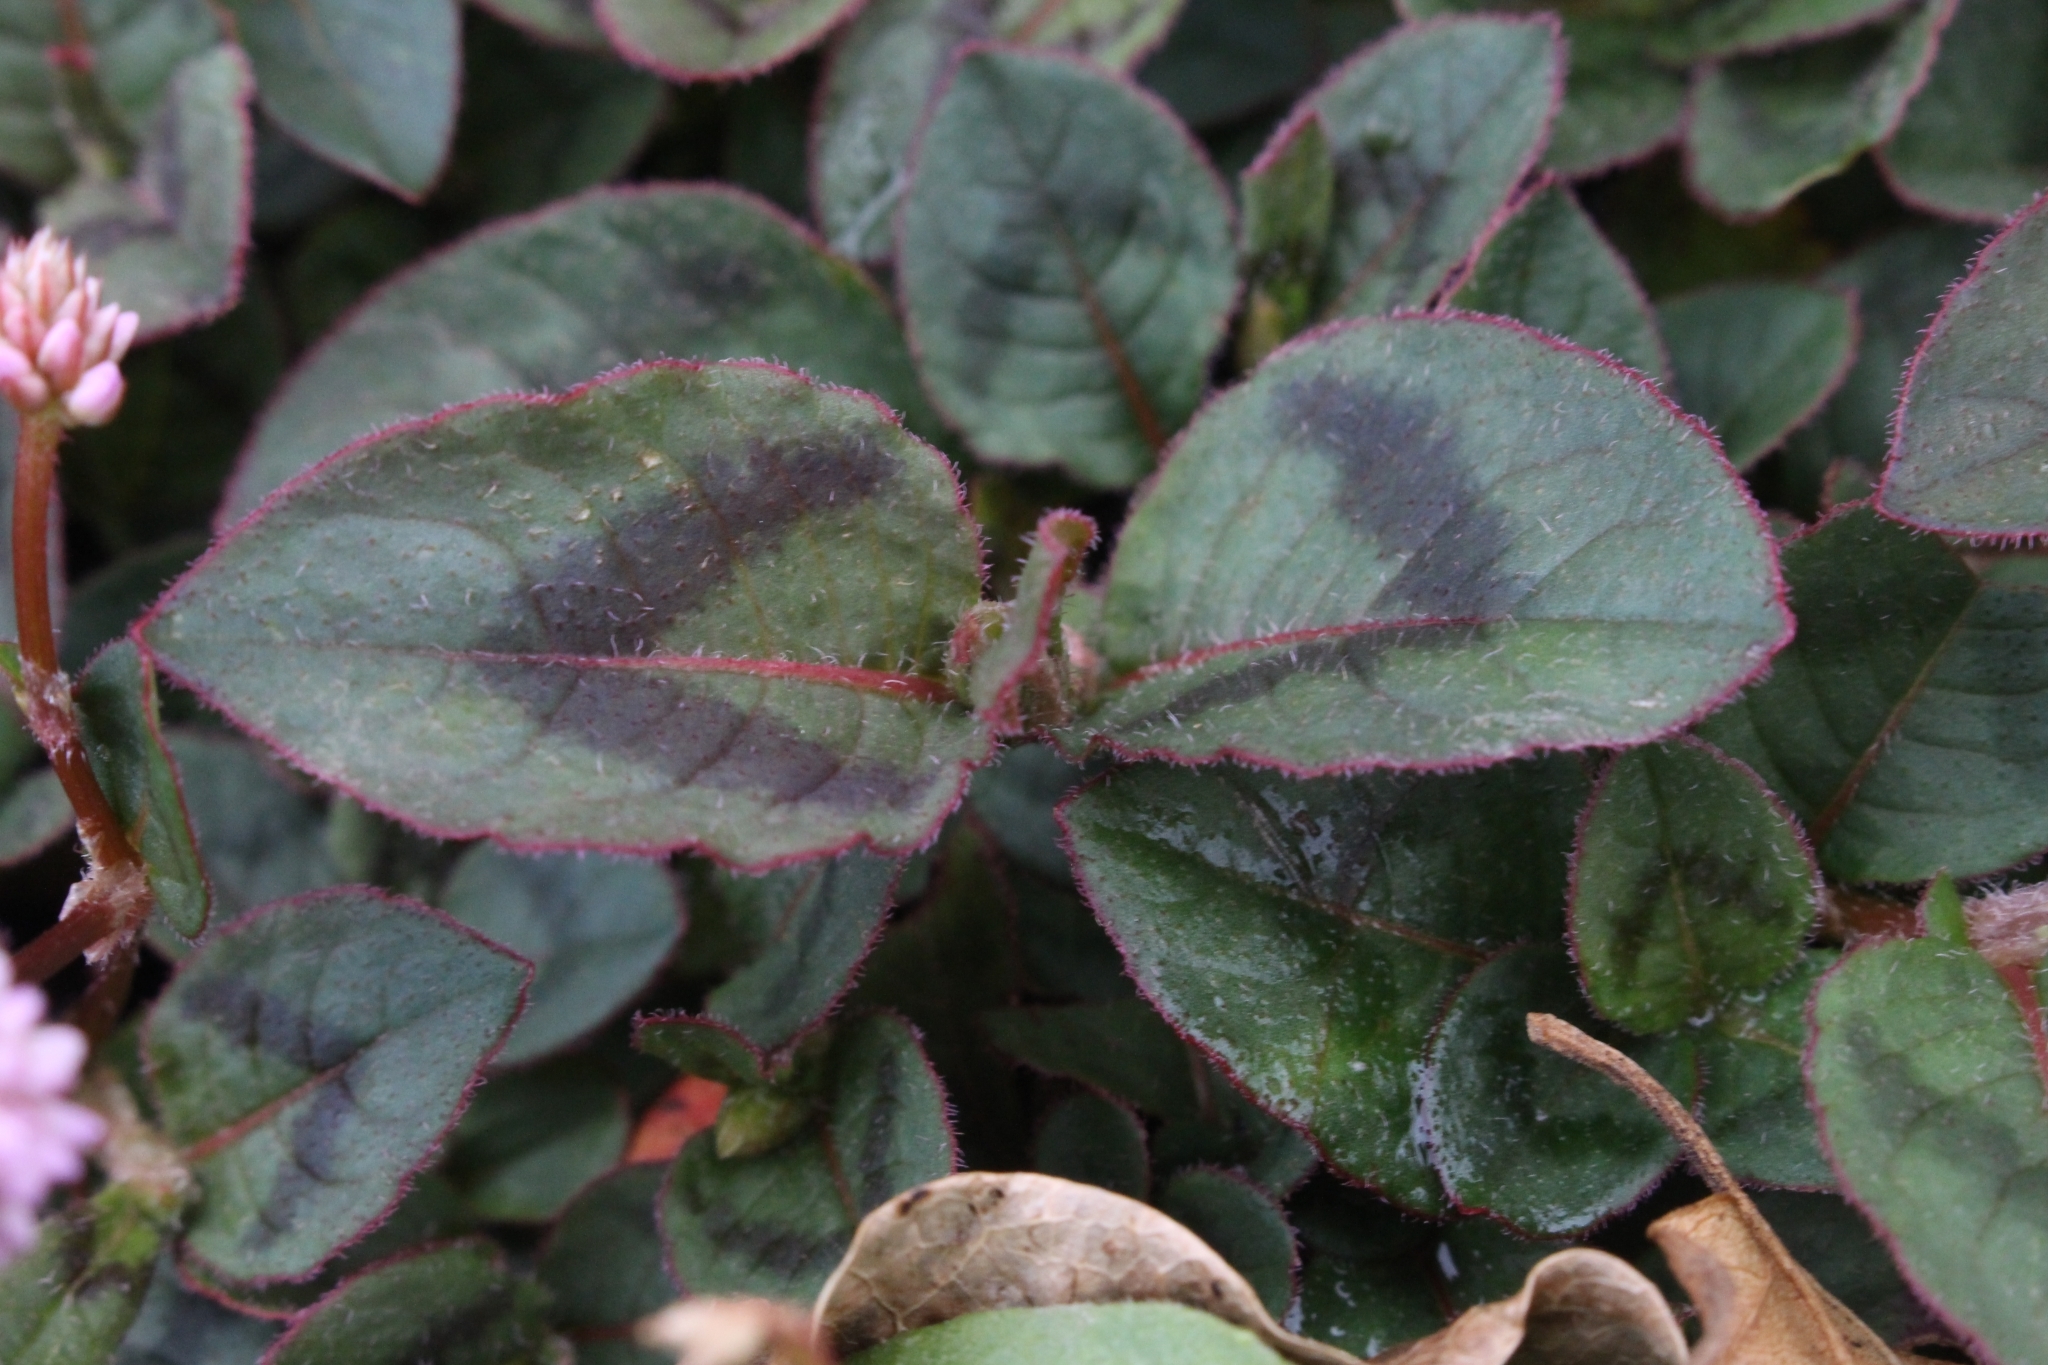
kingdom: Plantae
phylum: Tracheophyta
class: Magnoliopsida
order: Caryophyllales
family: Polygonaceae
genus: Persicaria
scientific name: Persicaria capitata
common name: Pinkhead smartweed
